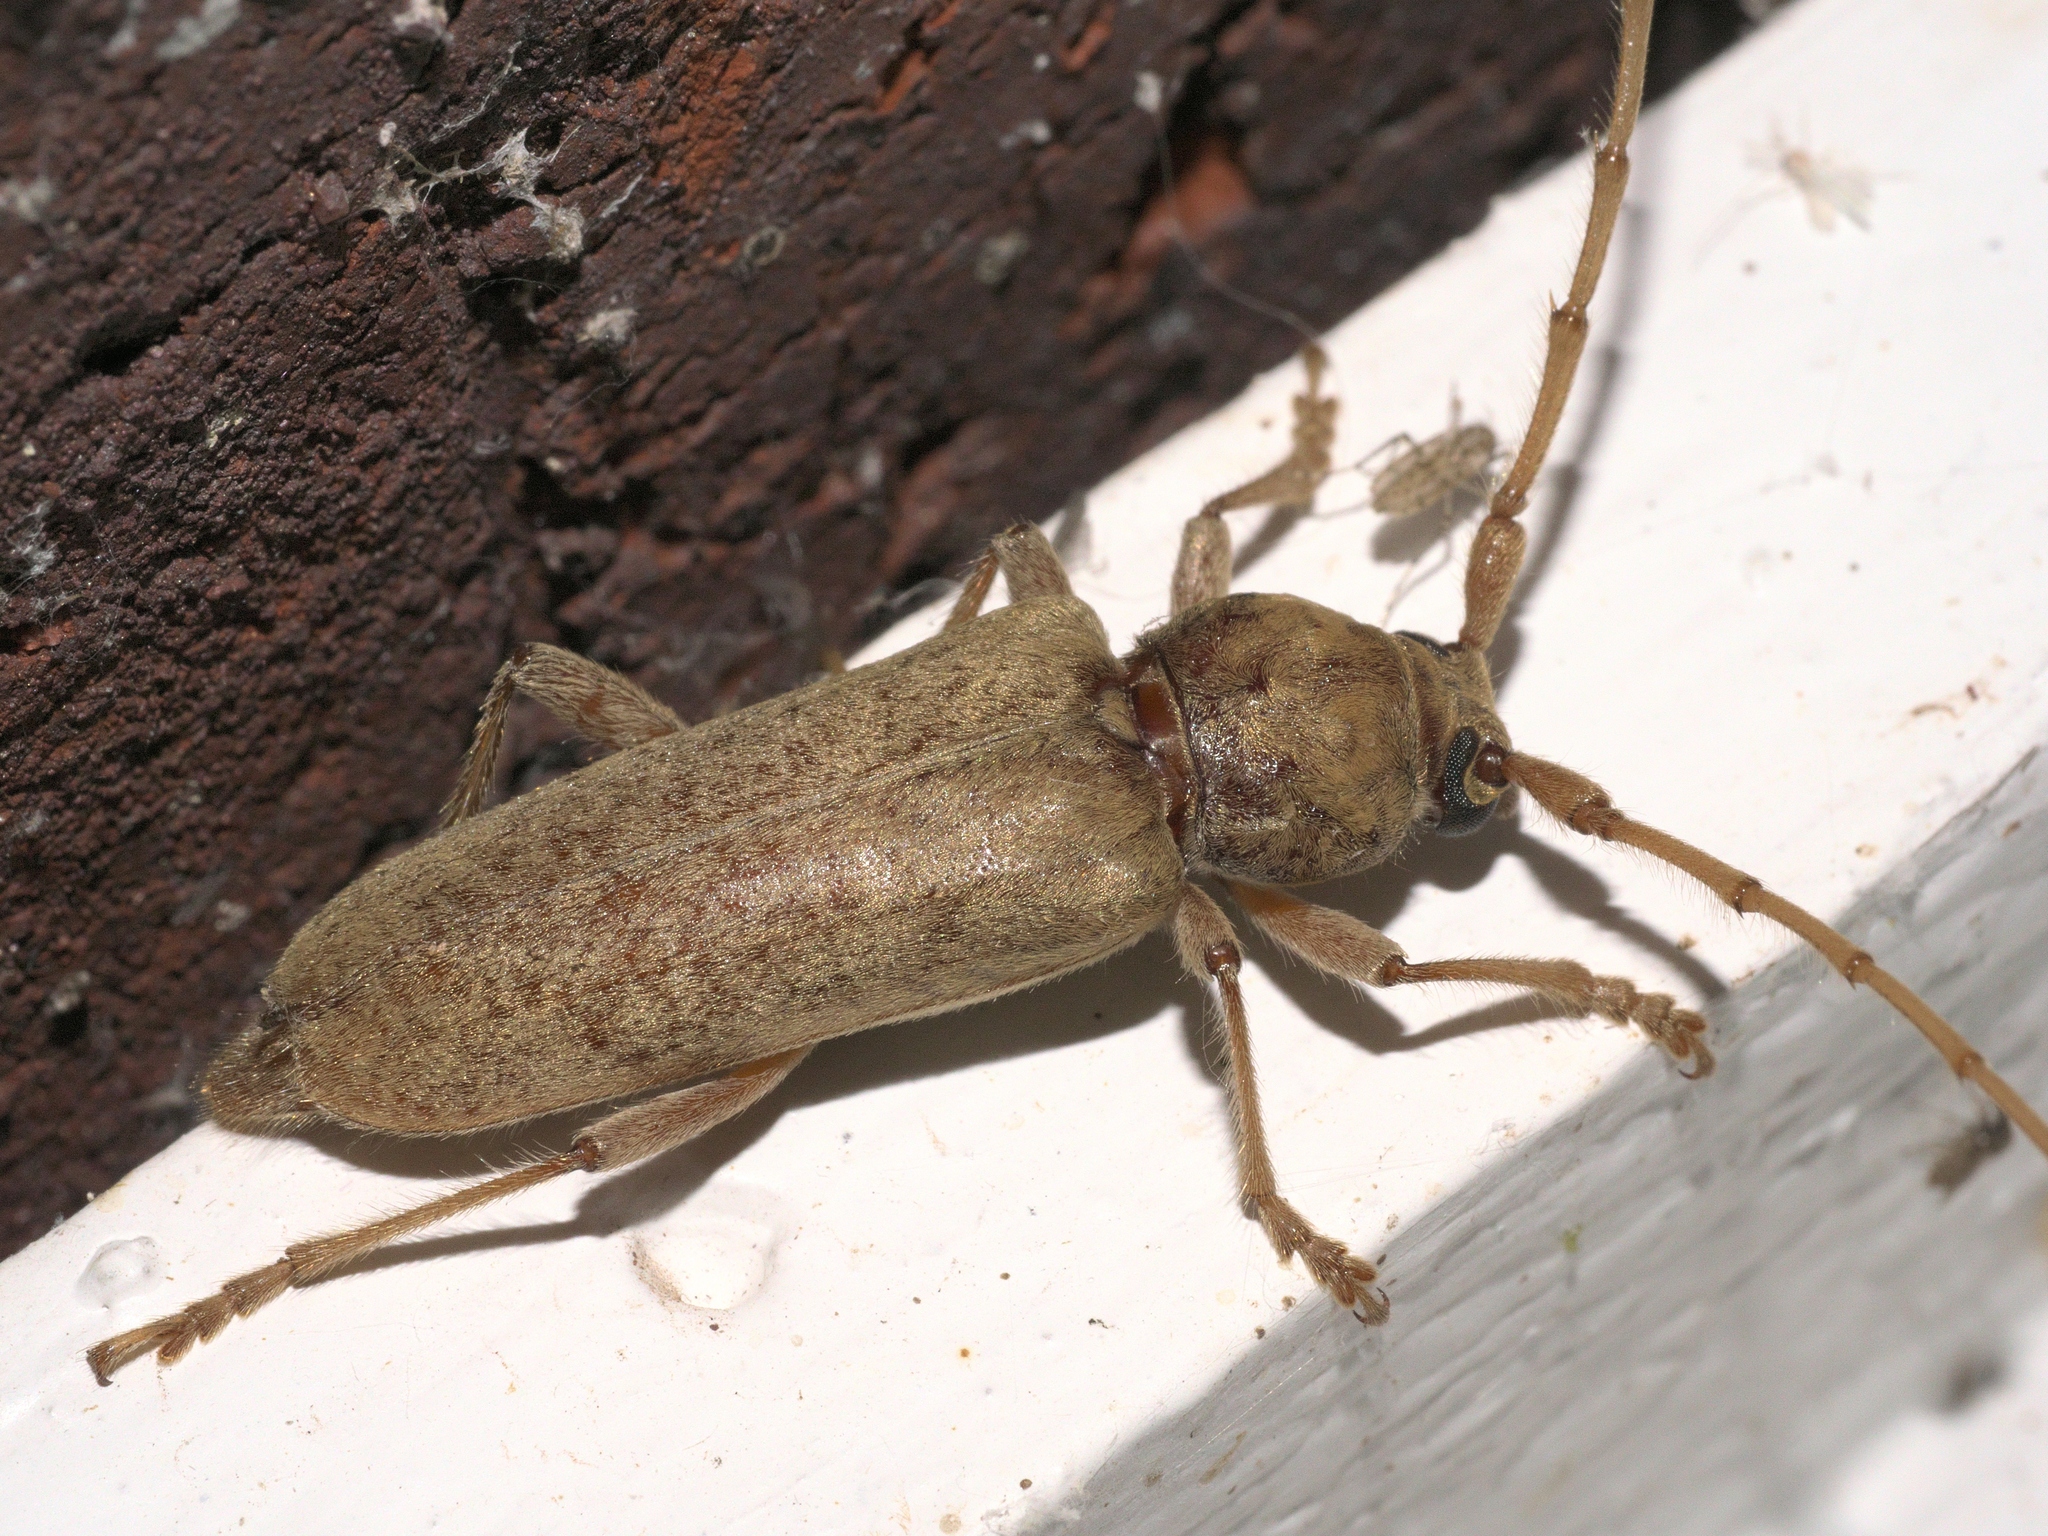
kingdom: Animalia
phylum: Arthropoda
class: Insecta
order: Coleoptera
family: Cerambycidae
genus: Enaphalodes
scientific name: Enaphalodes rufulus
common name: Red oak borer
